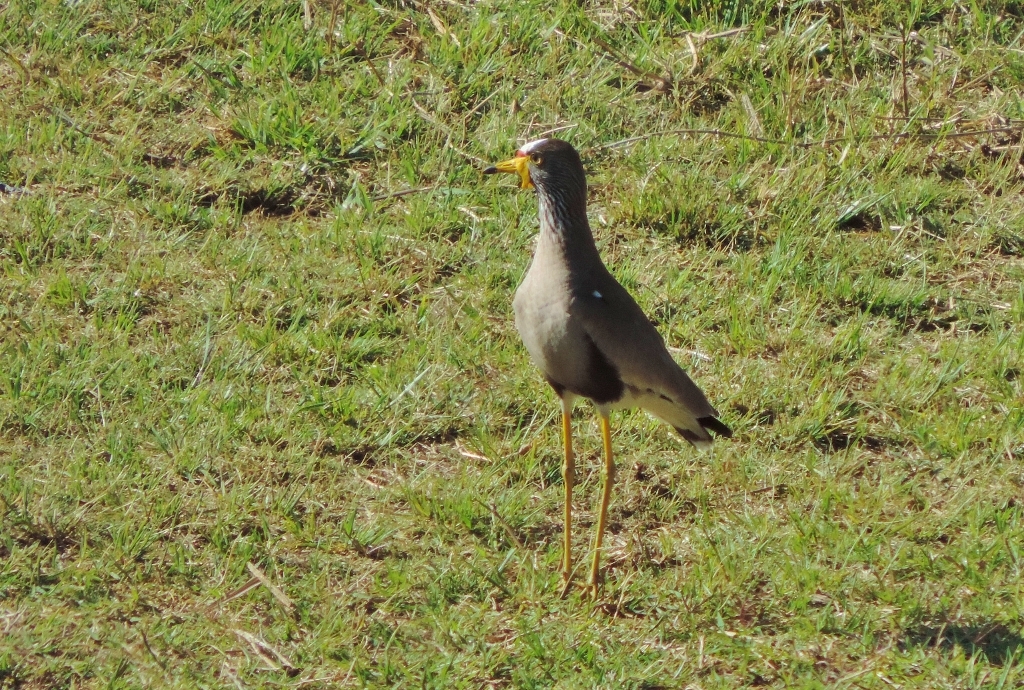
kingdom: Animalia
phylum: Chordata
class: Aves
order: Charadriiformes
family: Charadriidae
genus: Vanellus
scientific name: Vanellus senegallus
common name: African wattled lapwing
